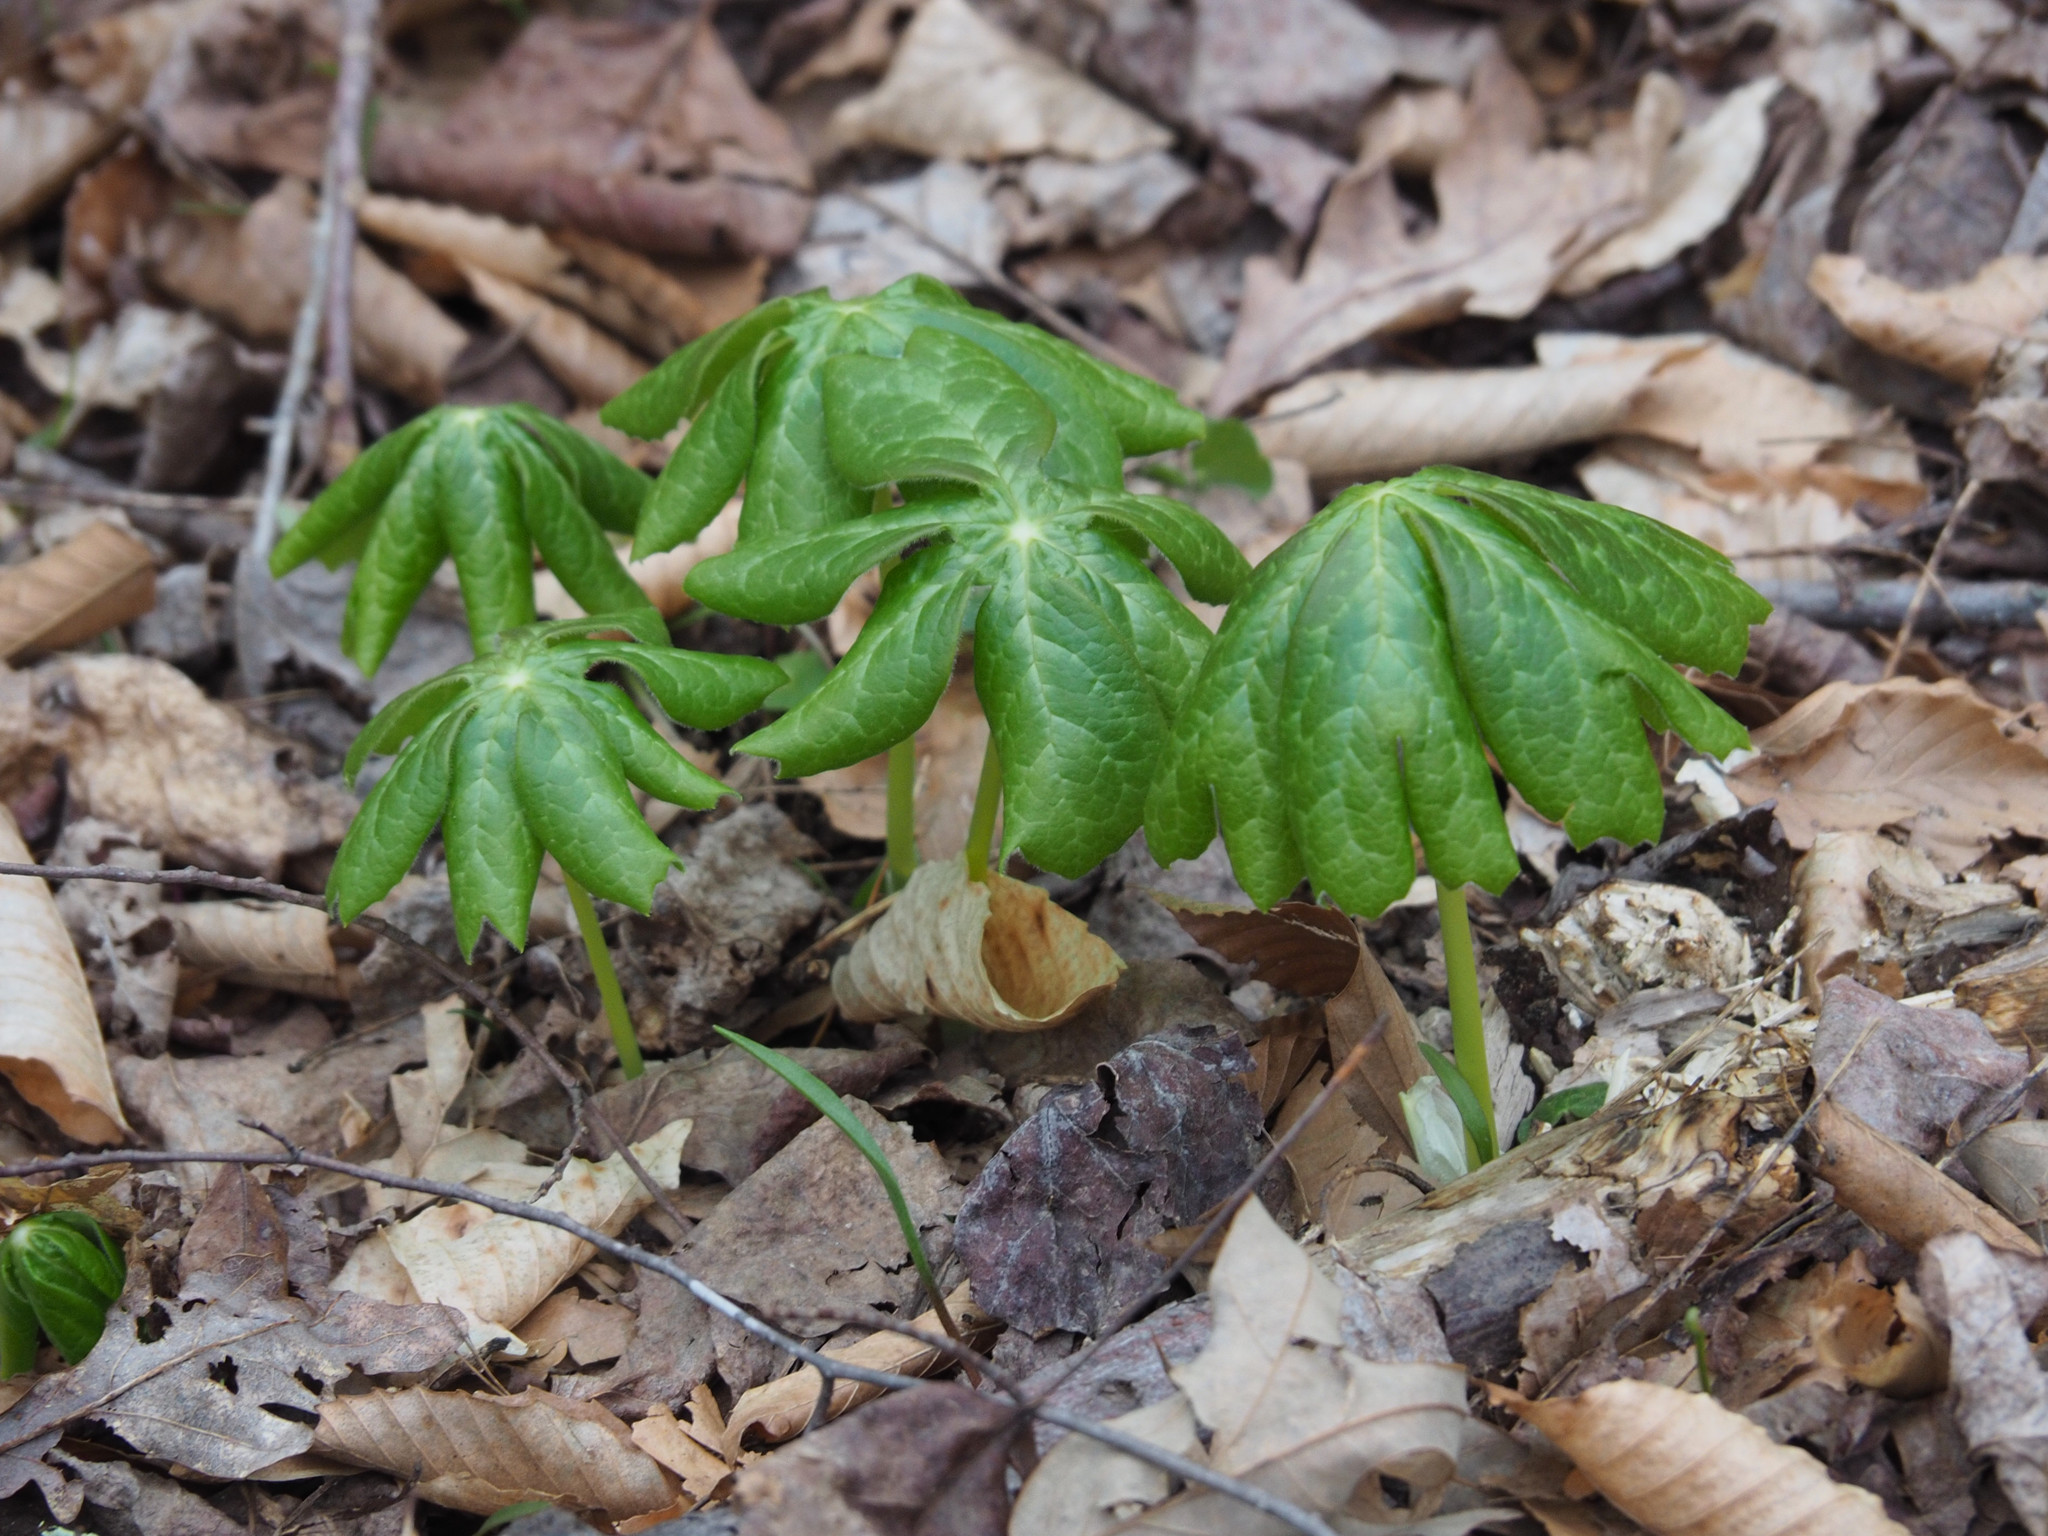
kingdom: Plantae
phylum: Tracheophyta
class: Magnoliopsida
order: Ranunculales
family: Berberidaceae
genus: Podophyllum
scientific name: Podophyllum peltatum
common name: Wild mandrake
